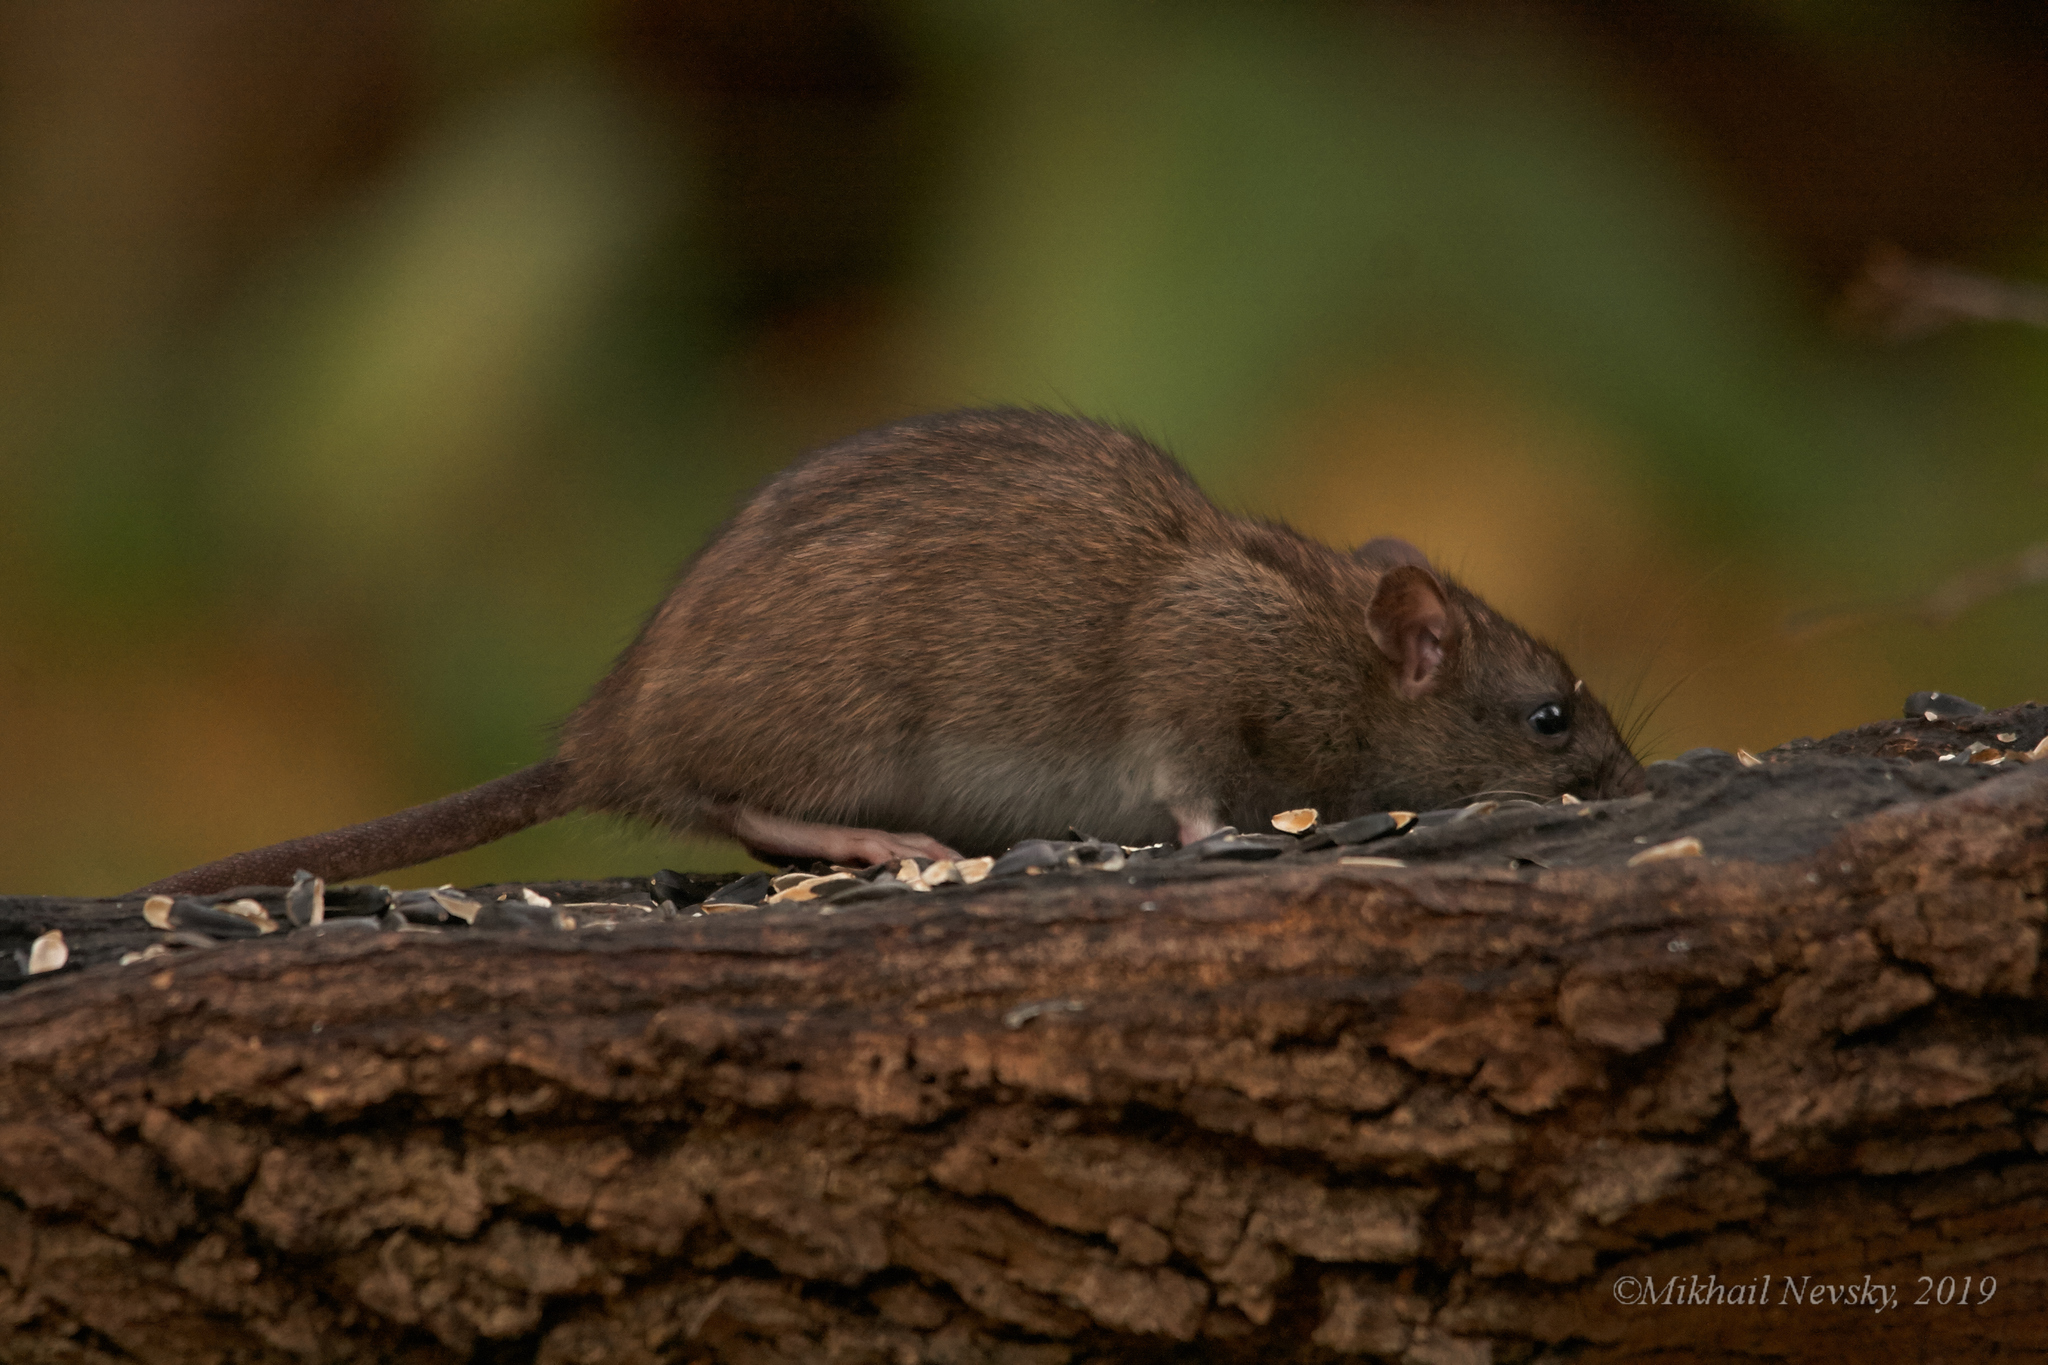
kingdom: Animalia
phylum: Chordata
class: Mammalia
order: Rodentia
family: Muridae
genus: Rattus
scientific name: Rattus norvegicus
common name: Brown rat
